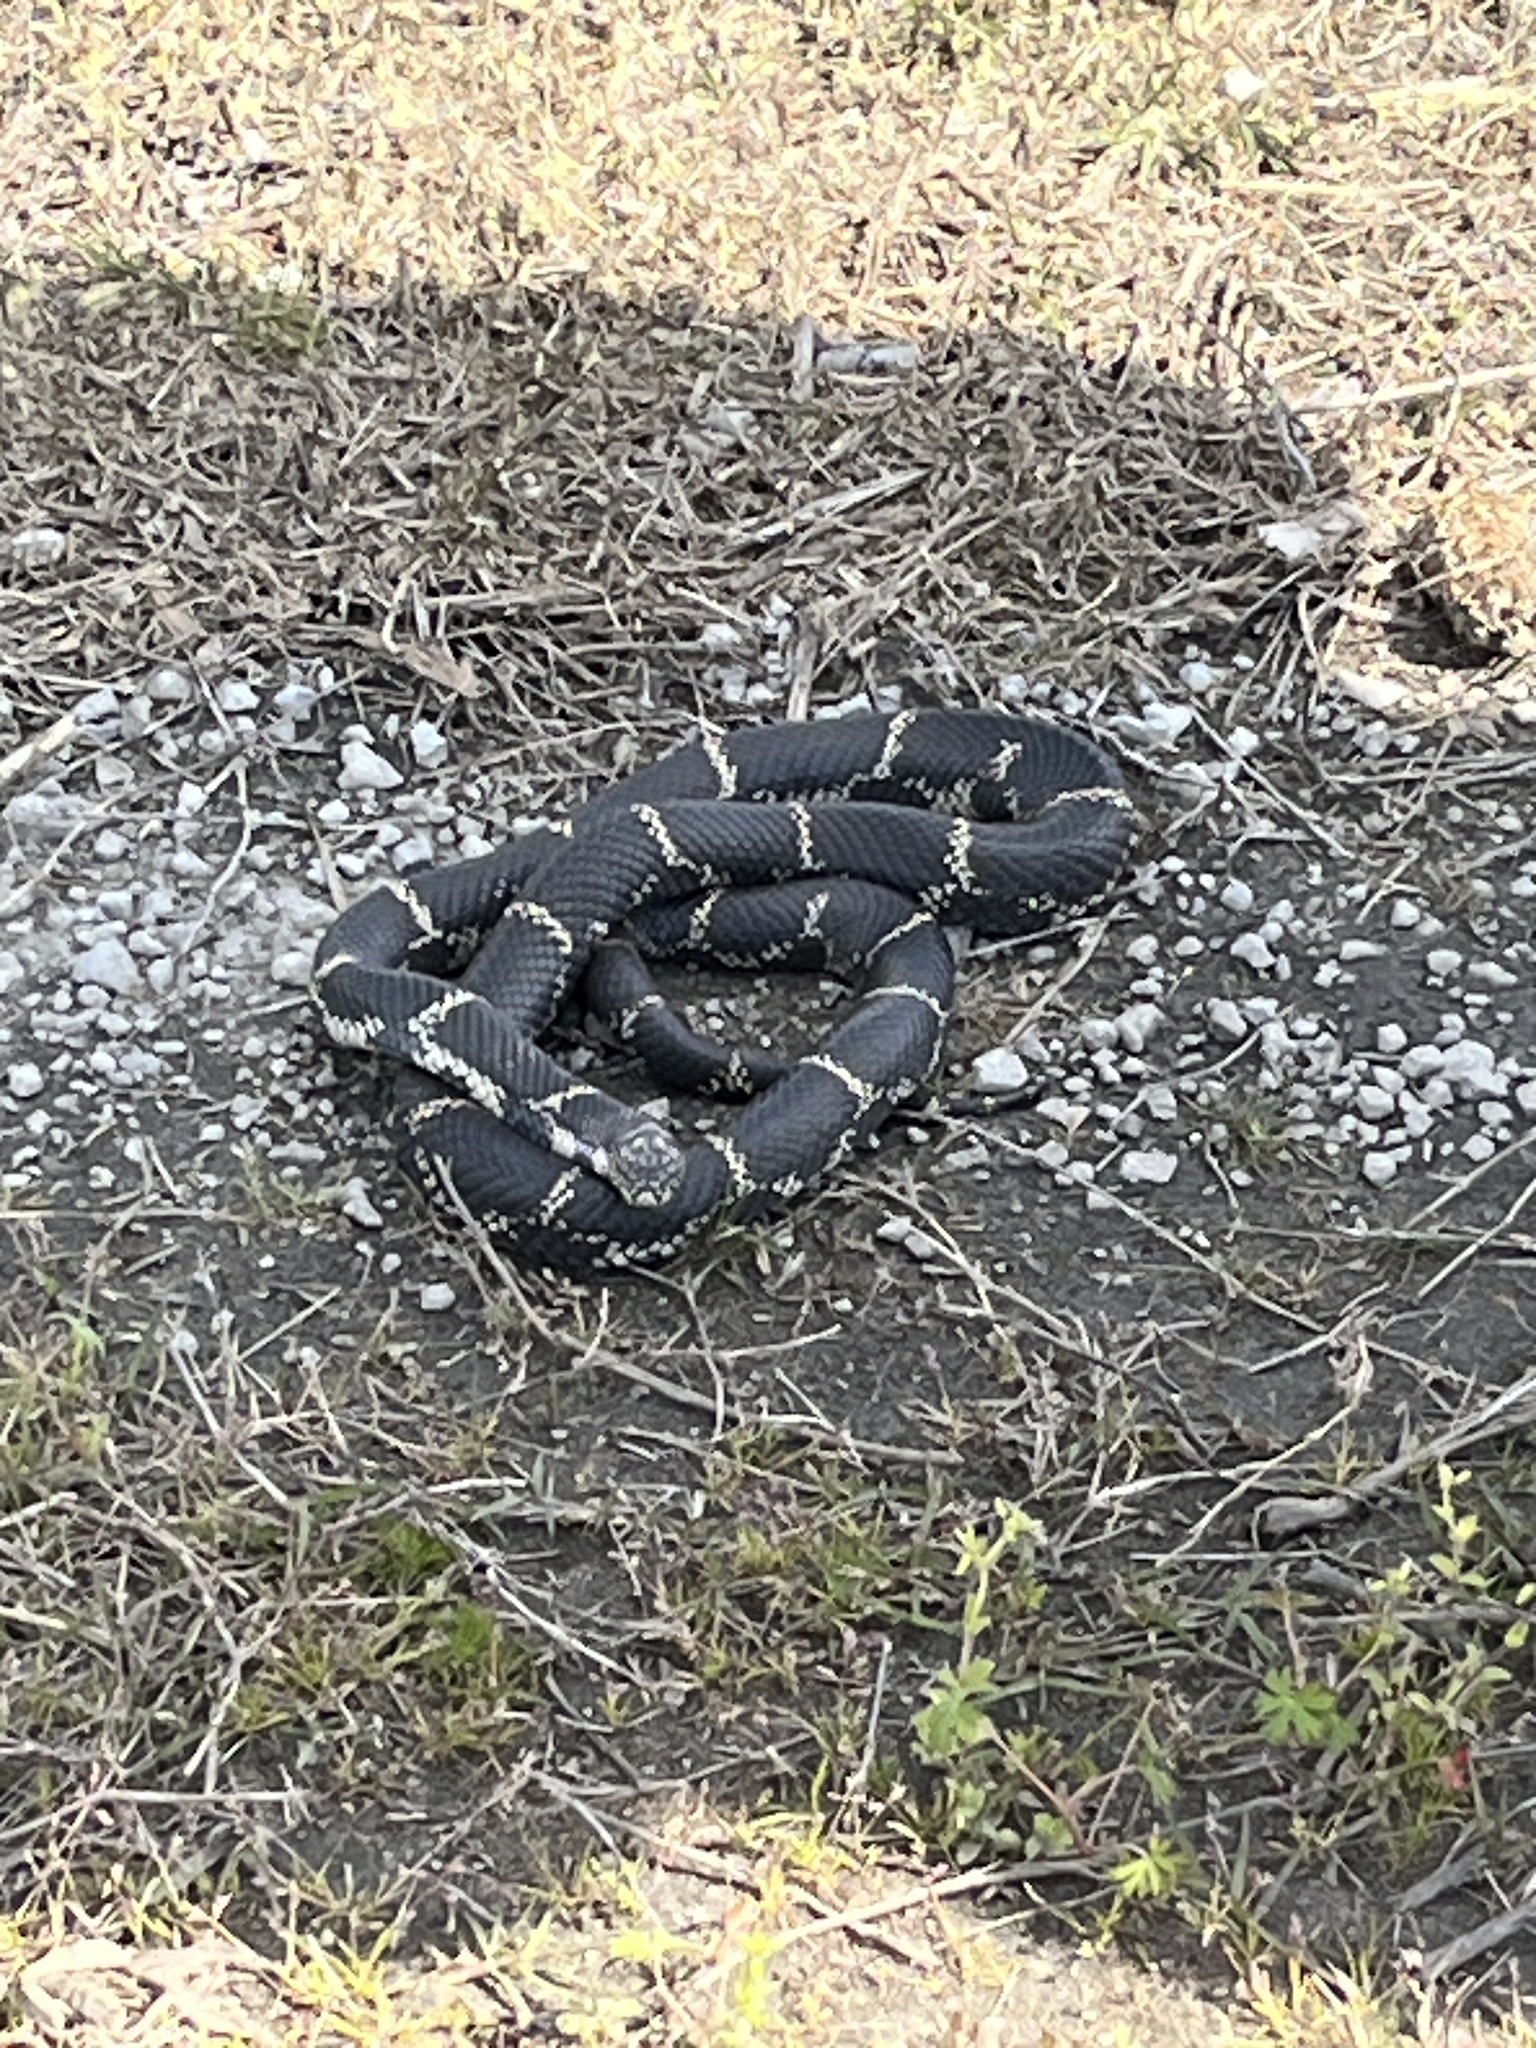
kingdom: Animalia
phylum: Chordata
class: Squamata
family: Colubridae
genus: Lampropeltis
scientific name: Lampropeltis getula
